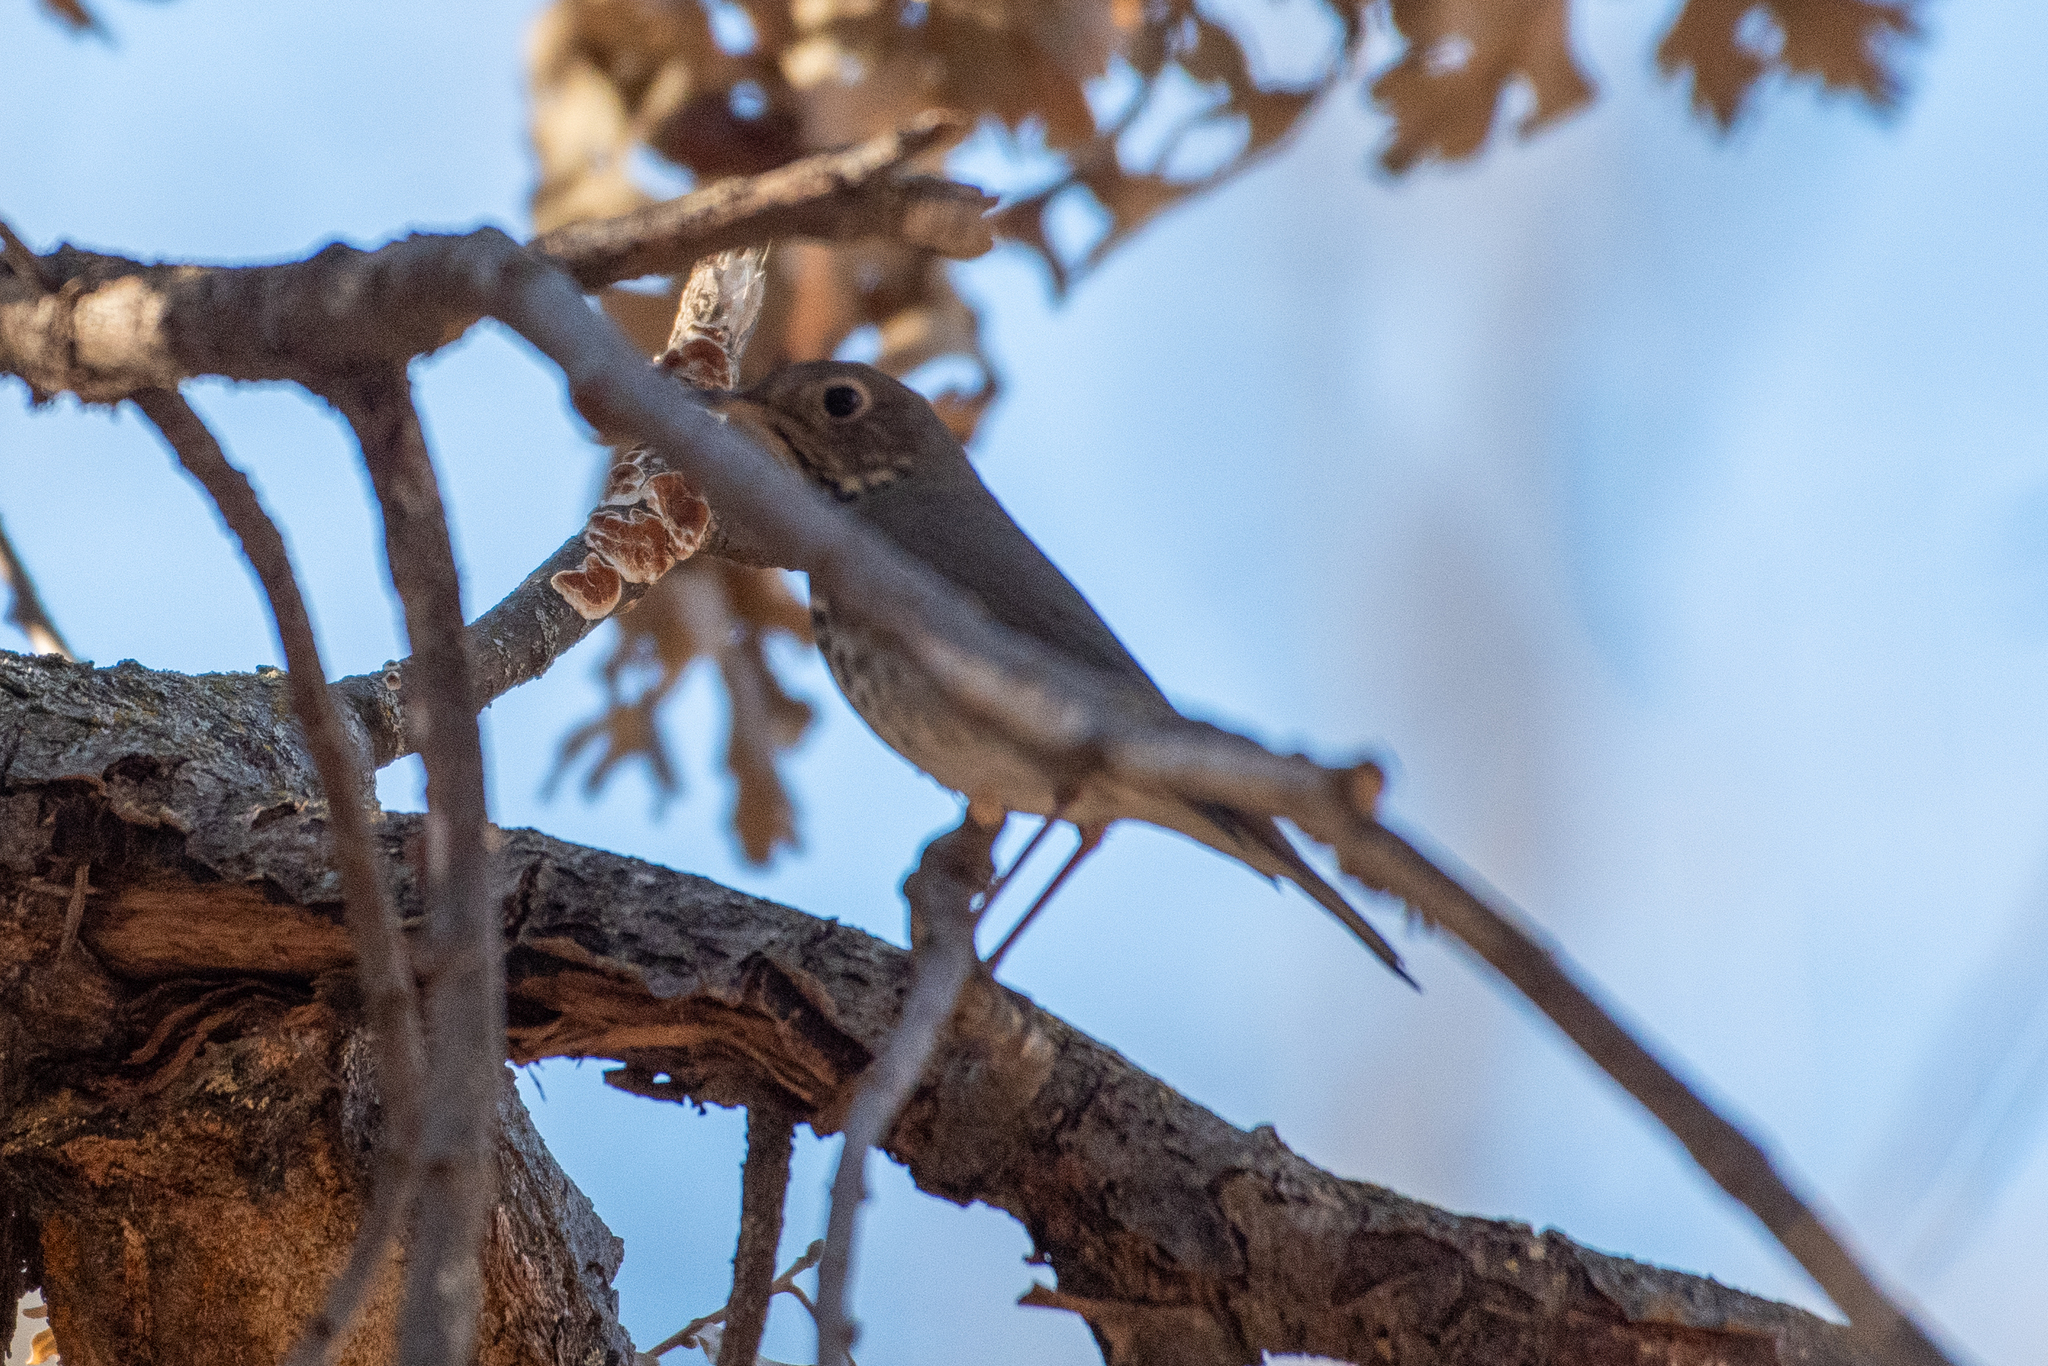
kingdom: Animalia
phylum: Chordata
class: Aves
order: Passeriformes
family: Turdidae
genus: Catharus
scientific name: Catharus ustulatus
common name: Swainson's thrush
